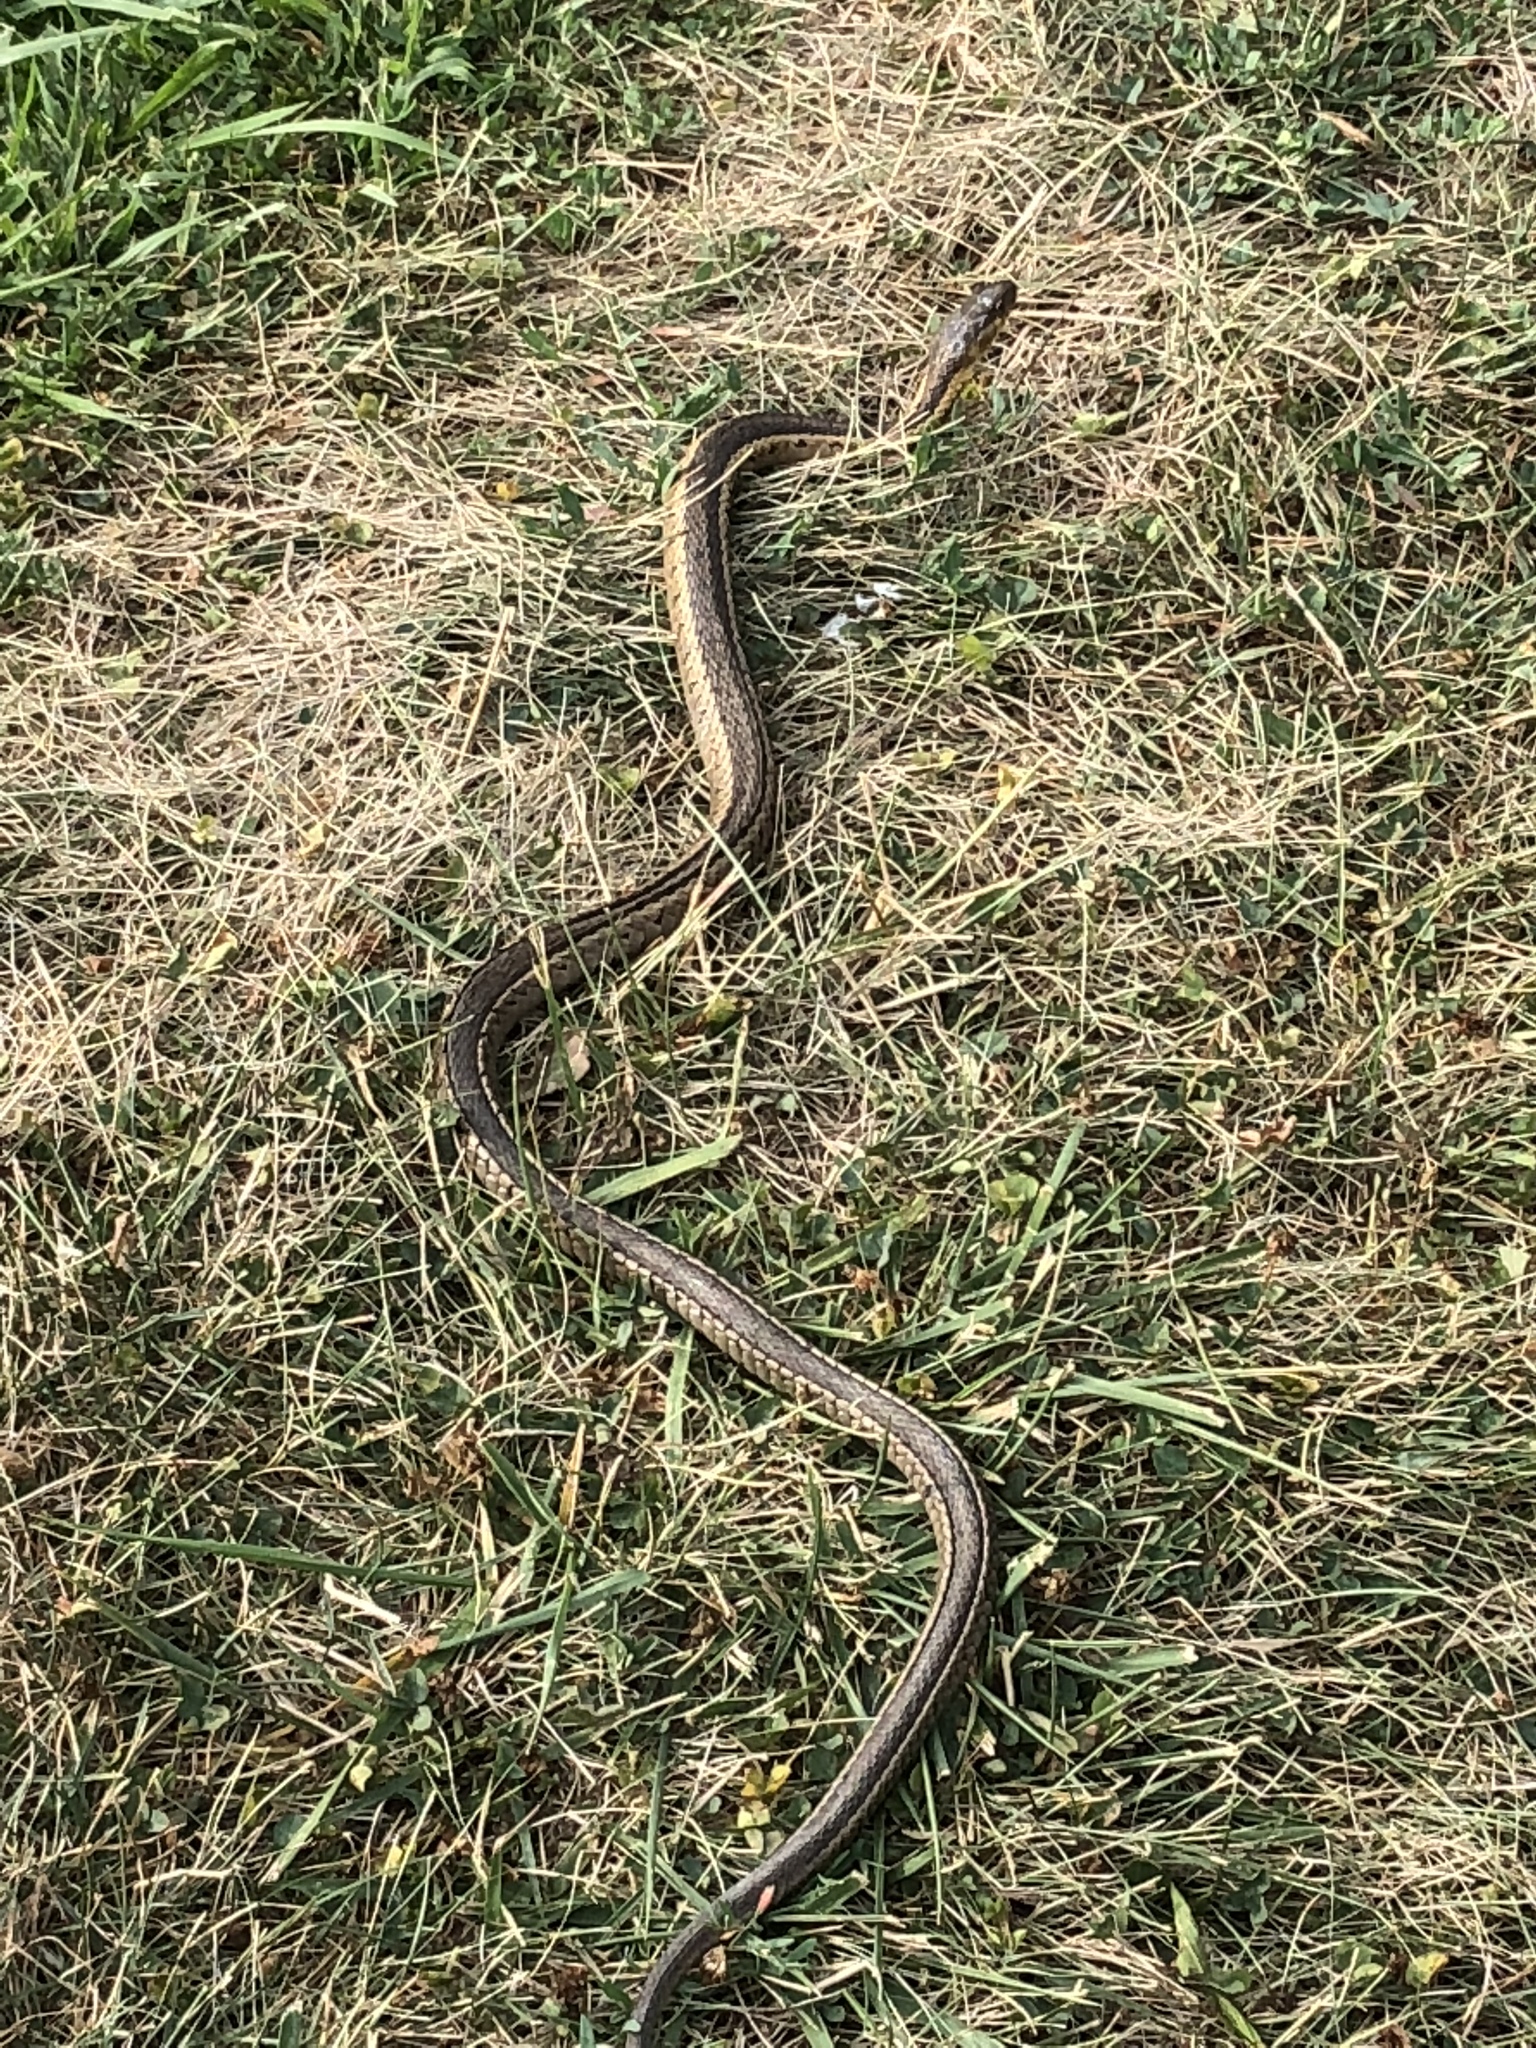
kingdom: Animalia
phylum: Chordata
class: Squamata
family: Colubridae
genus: Thamnophis
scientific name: Thamnophis sirtalis
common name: Common garter snake
